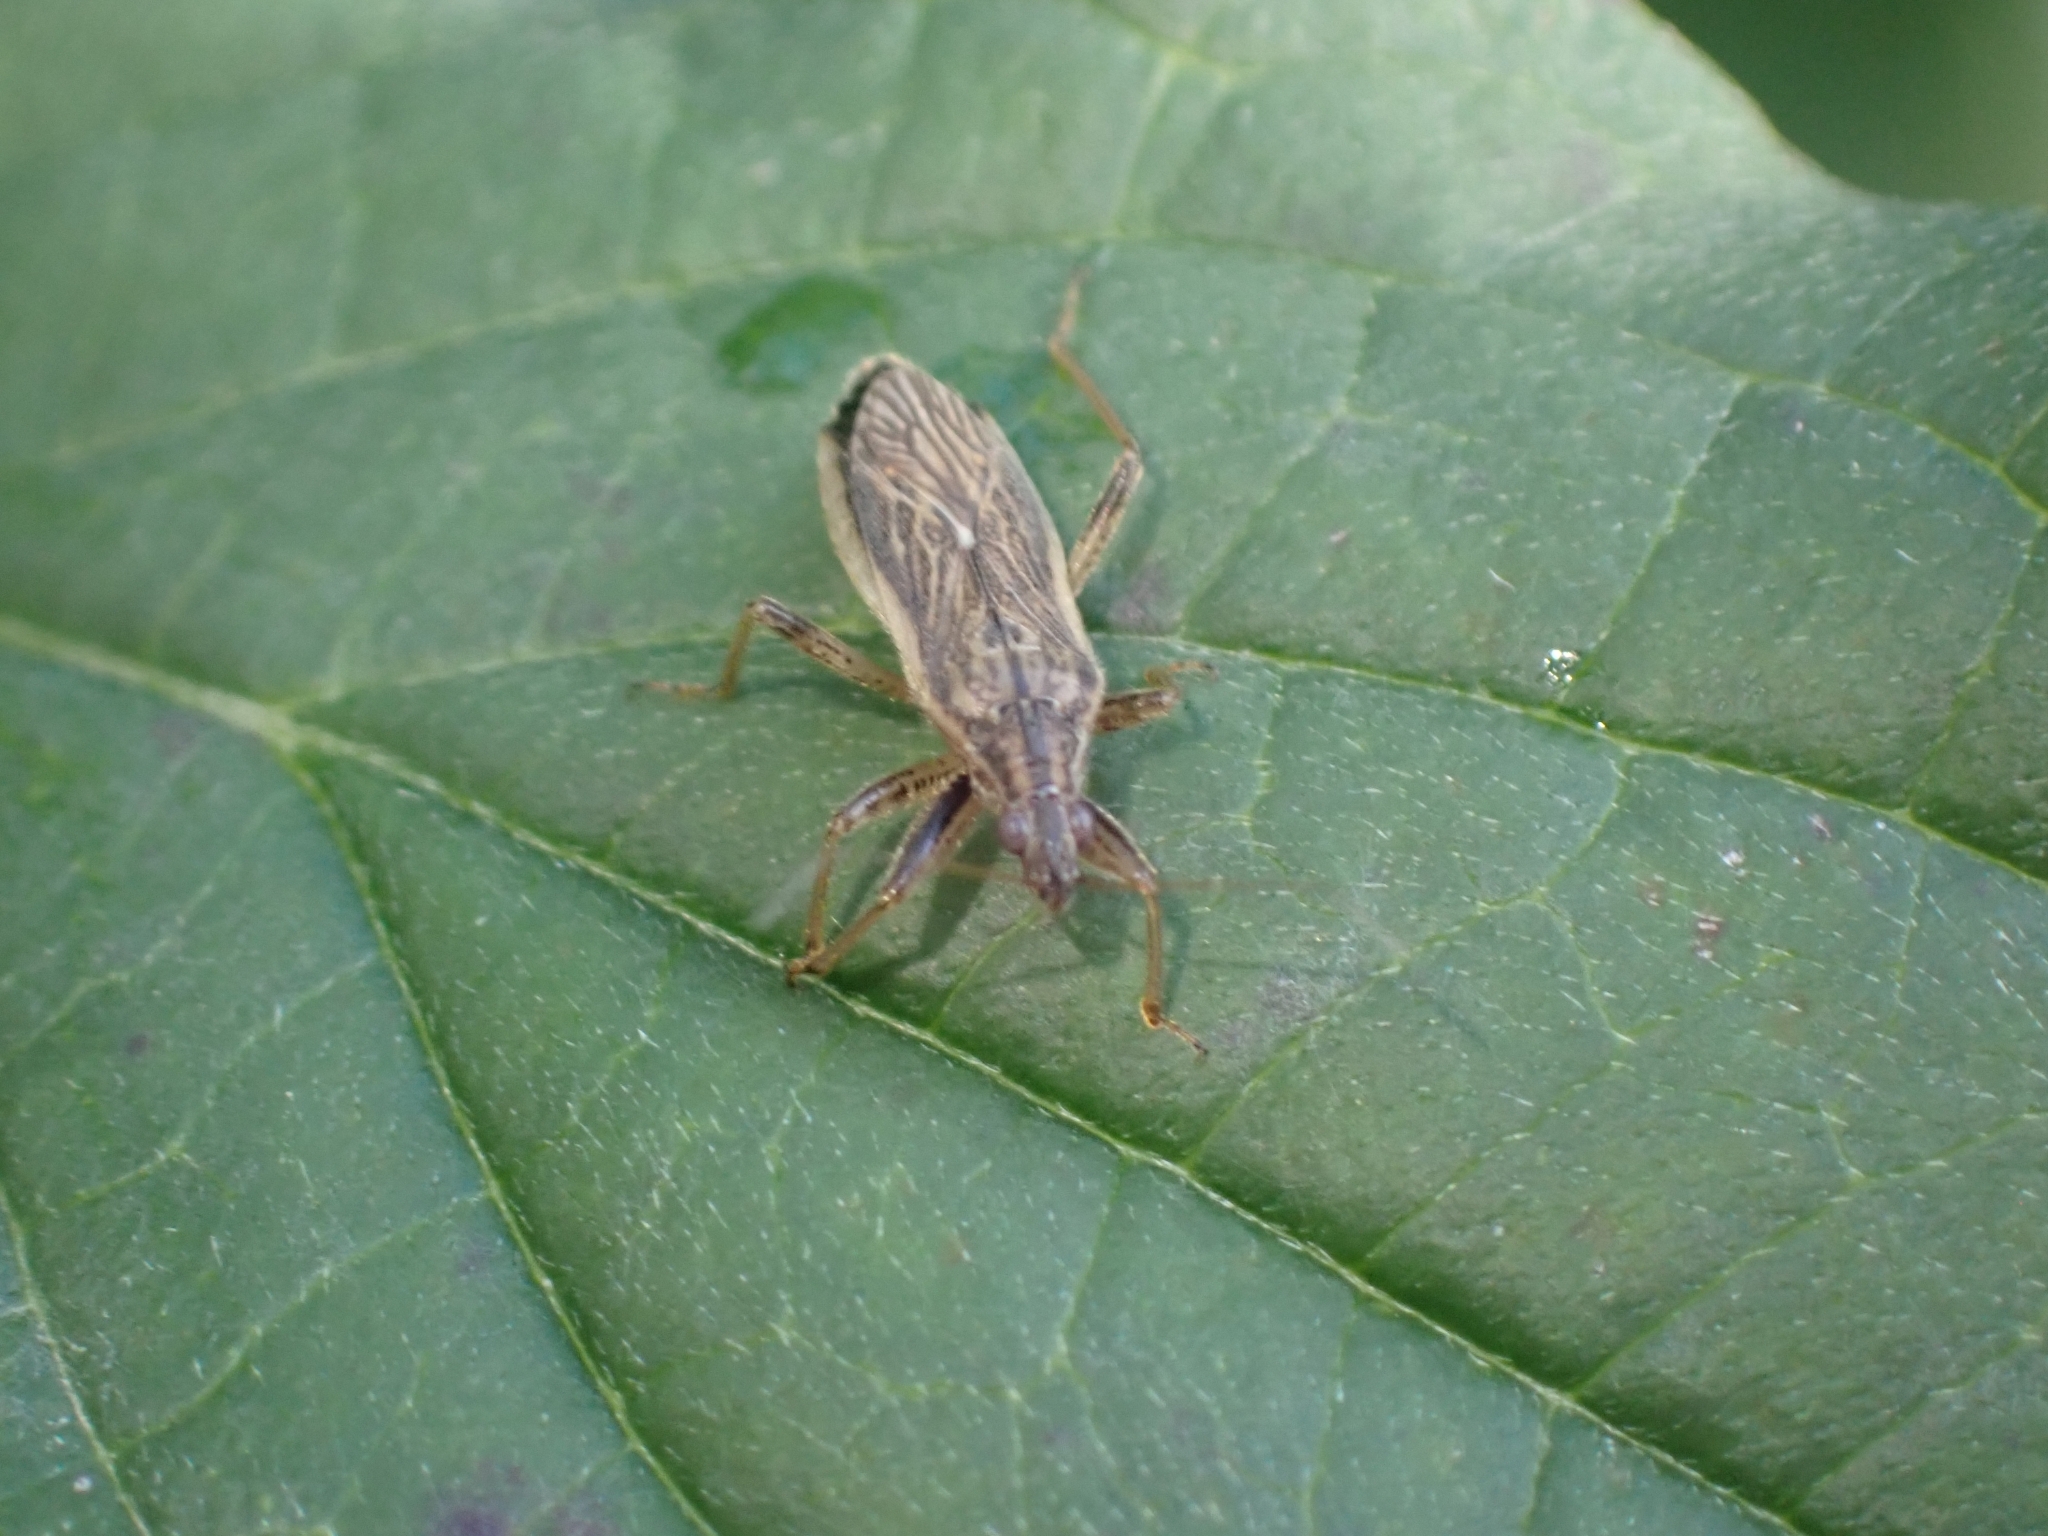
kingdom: Animalia
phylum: Arthropoda
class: Insecta
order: Hemiptera
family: Nabidae
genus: Himacerus
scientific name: Himacerus major
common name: Damsel bug
